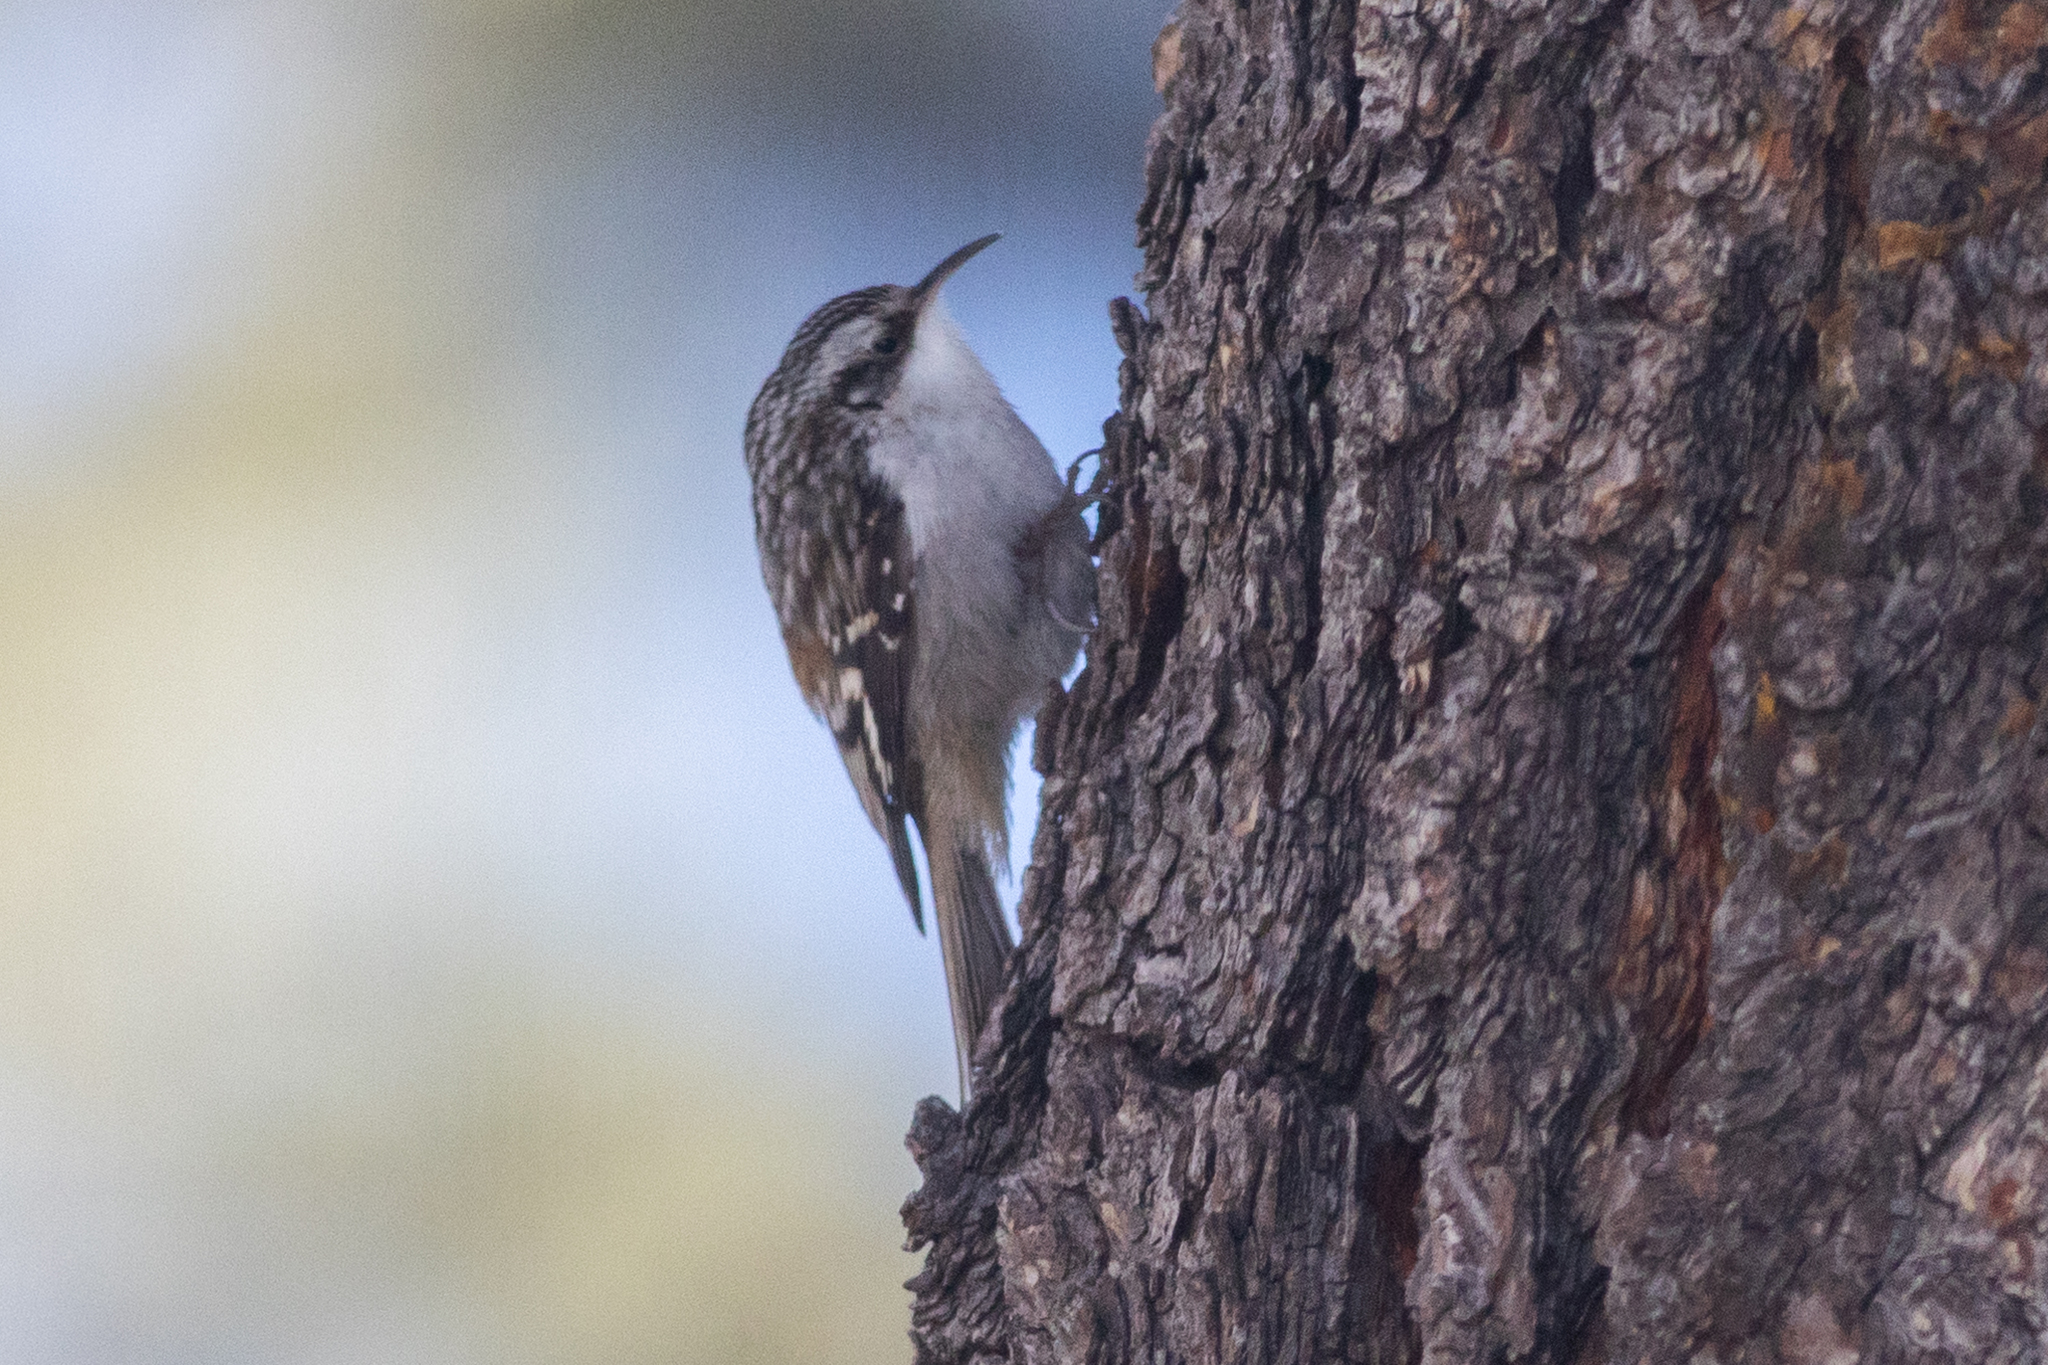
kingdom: Animalia
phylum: Chordata
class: Aves
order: Passeriformes
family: Certhiidae
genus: Certhia
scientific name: Certhia americana
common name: Brown creeper
